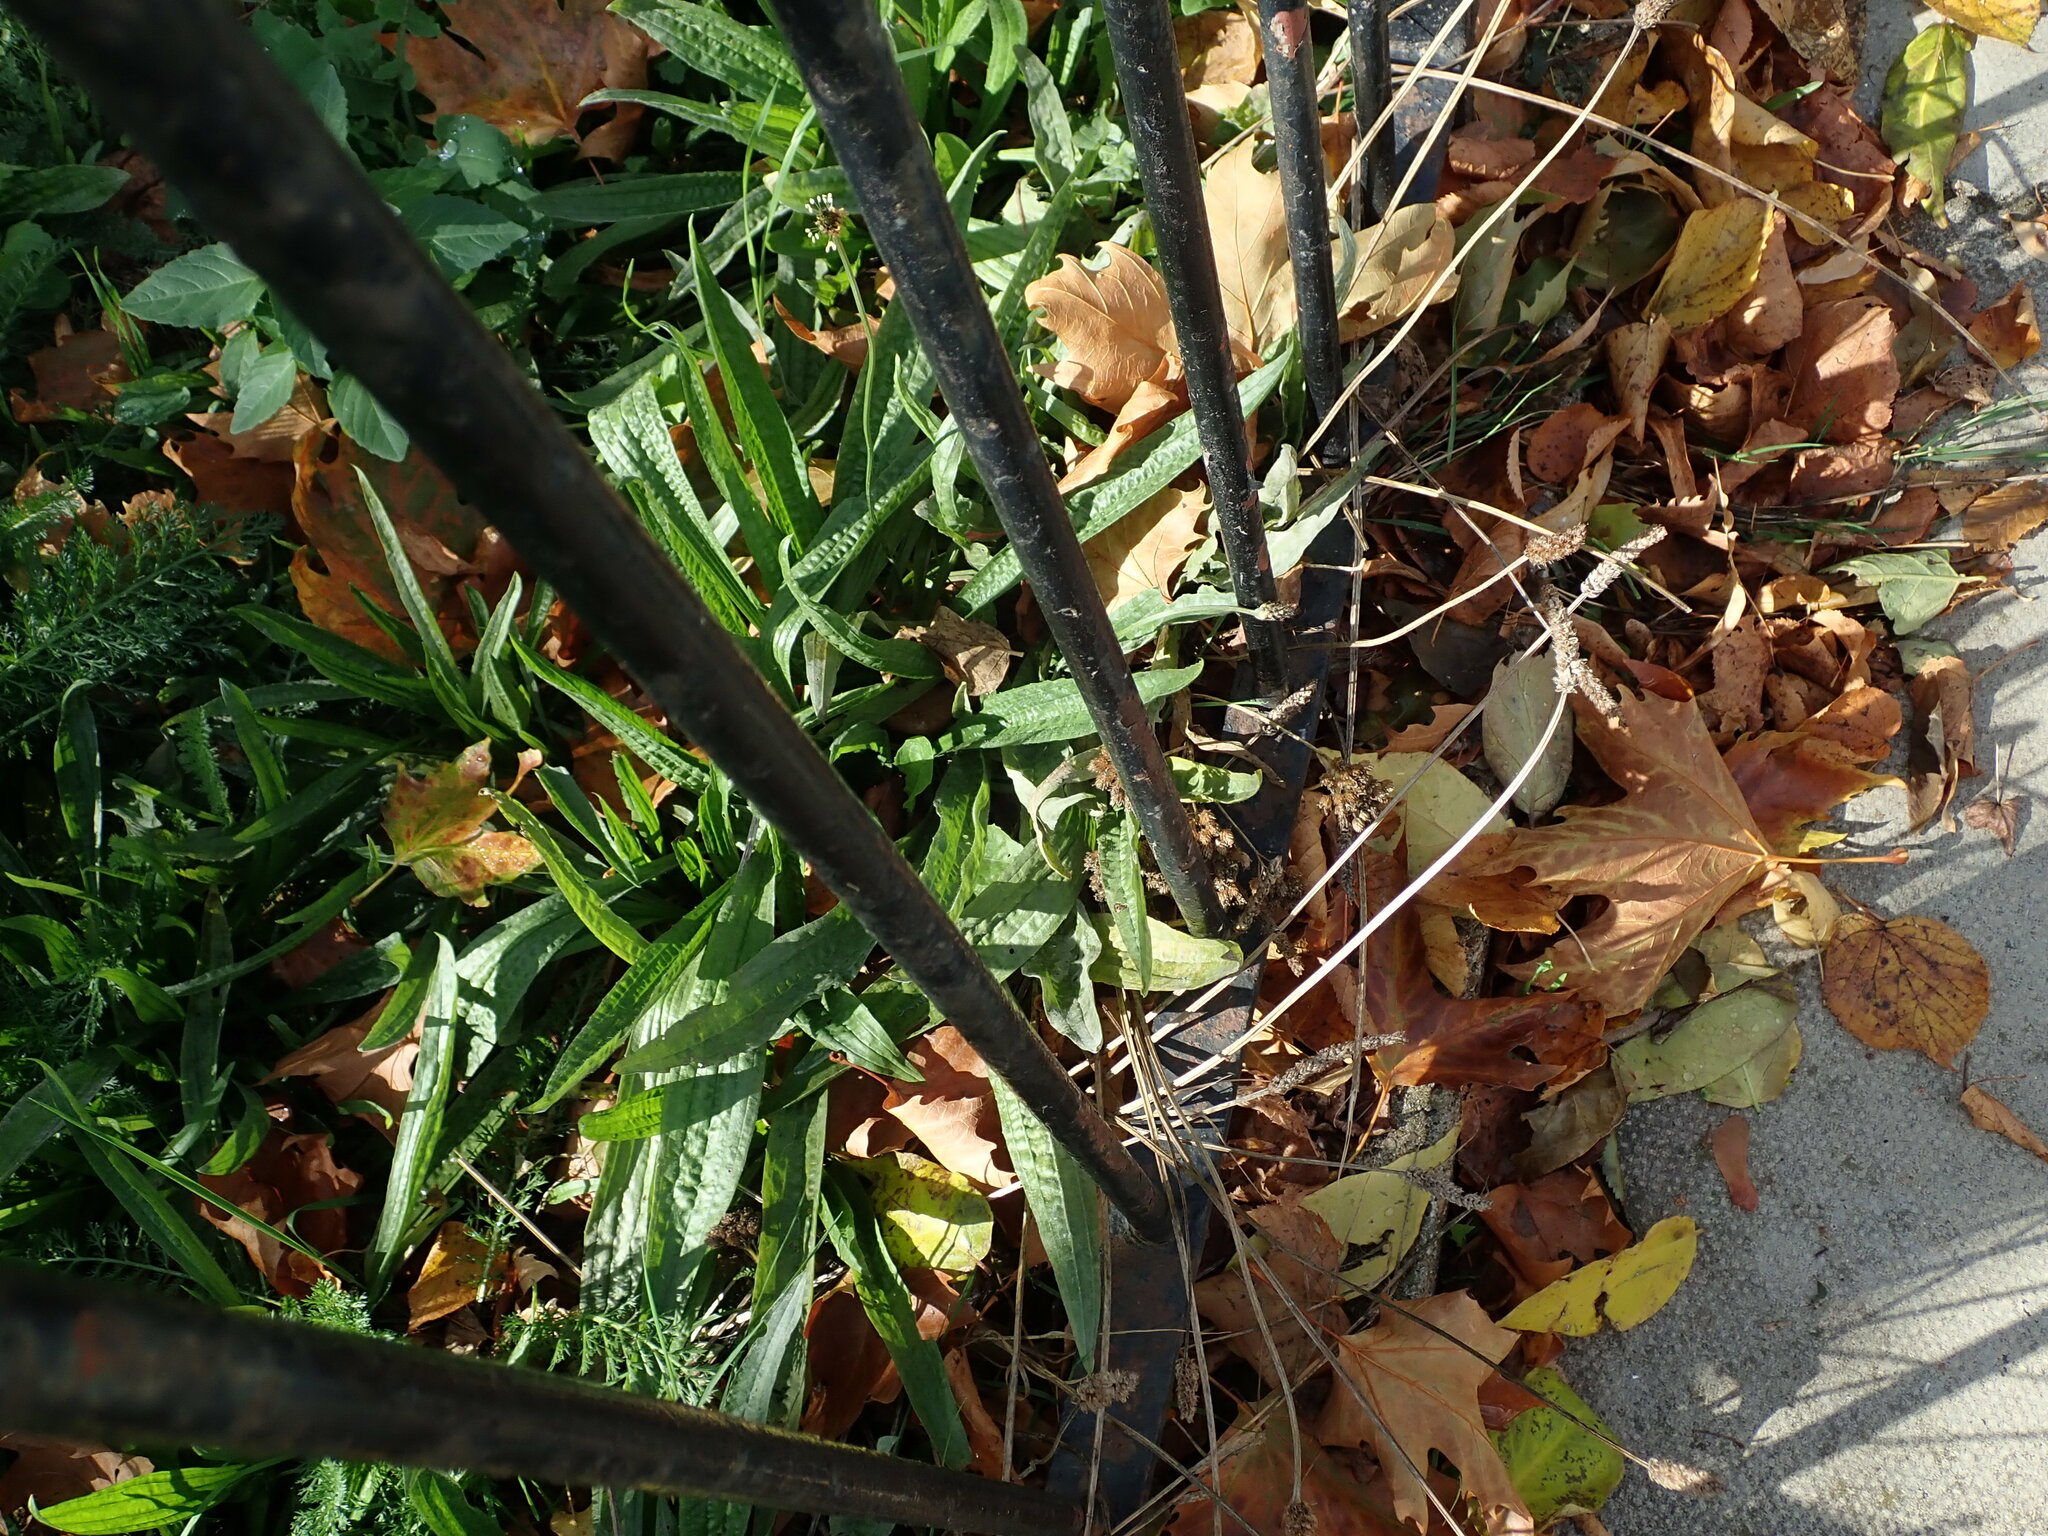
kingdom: Plantae
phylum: Tracheophyta
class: Magnoliopsida
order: Lamiales
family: Plantaginaceae
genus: Plantago
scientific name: Plantago lanceolata
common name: Ribwort plantain
